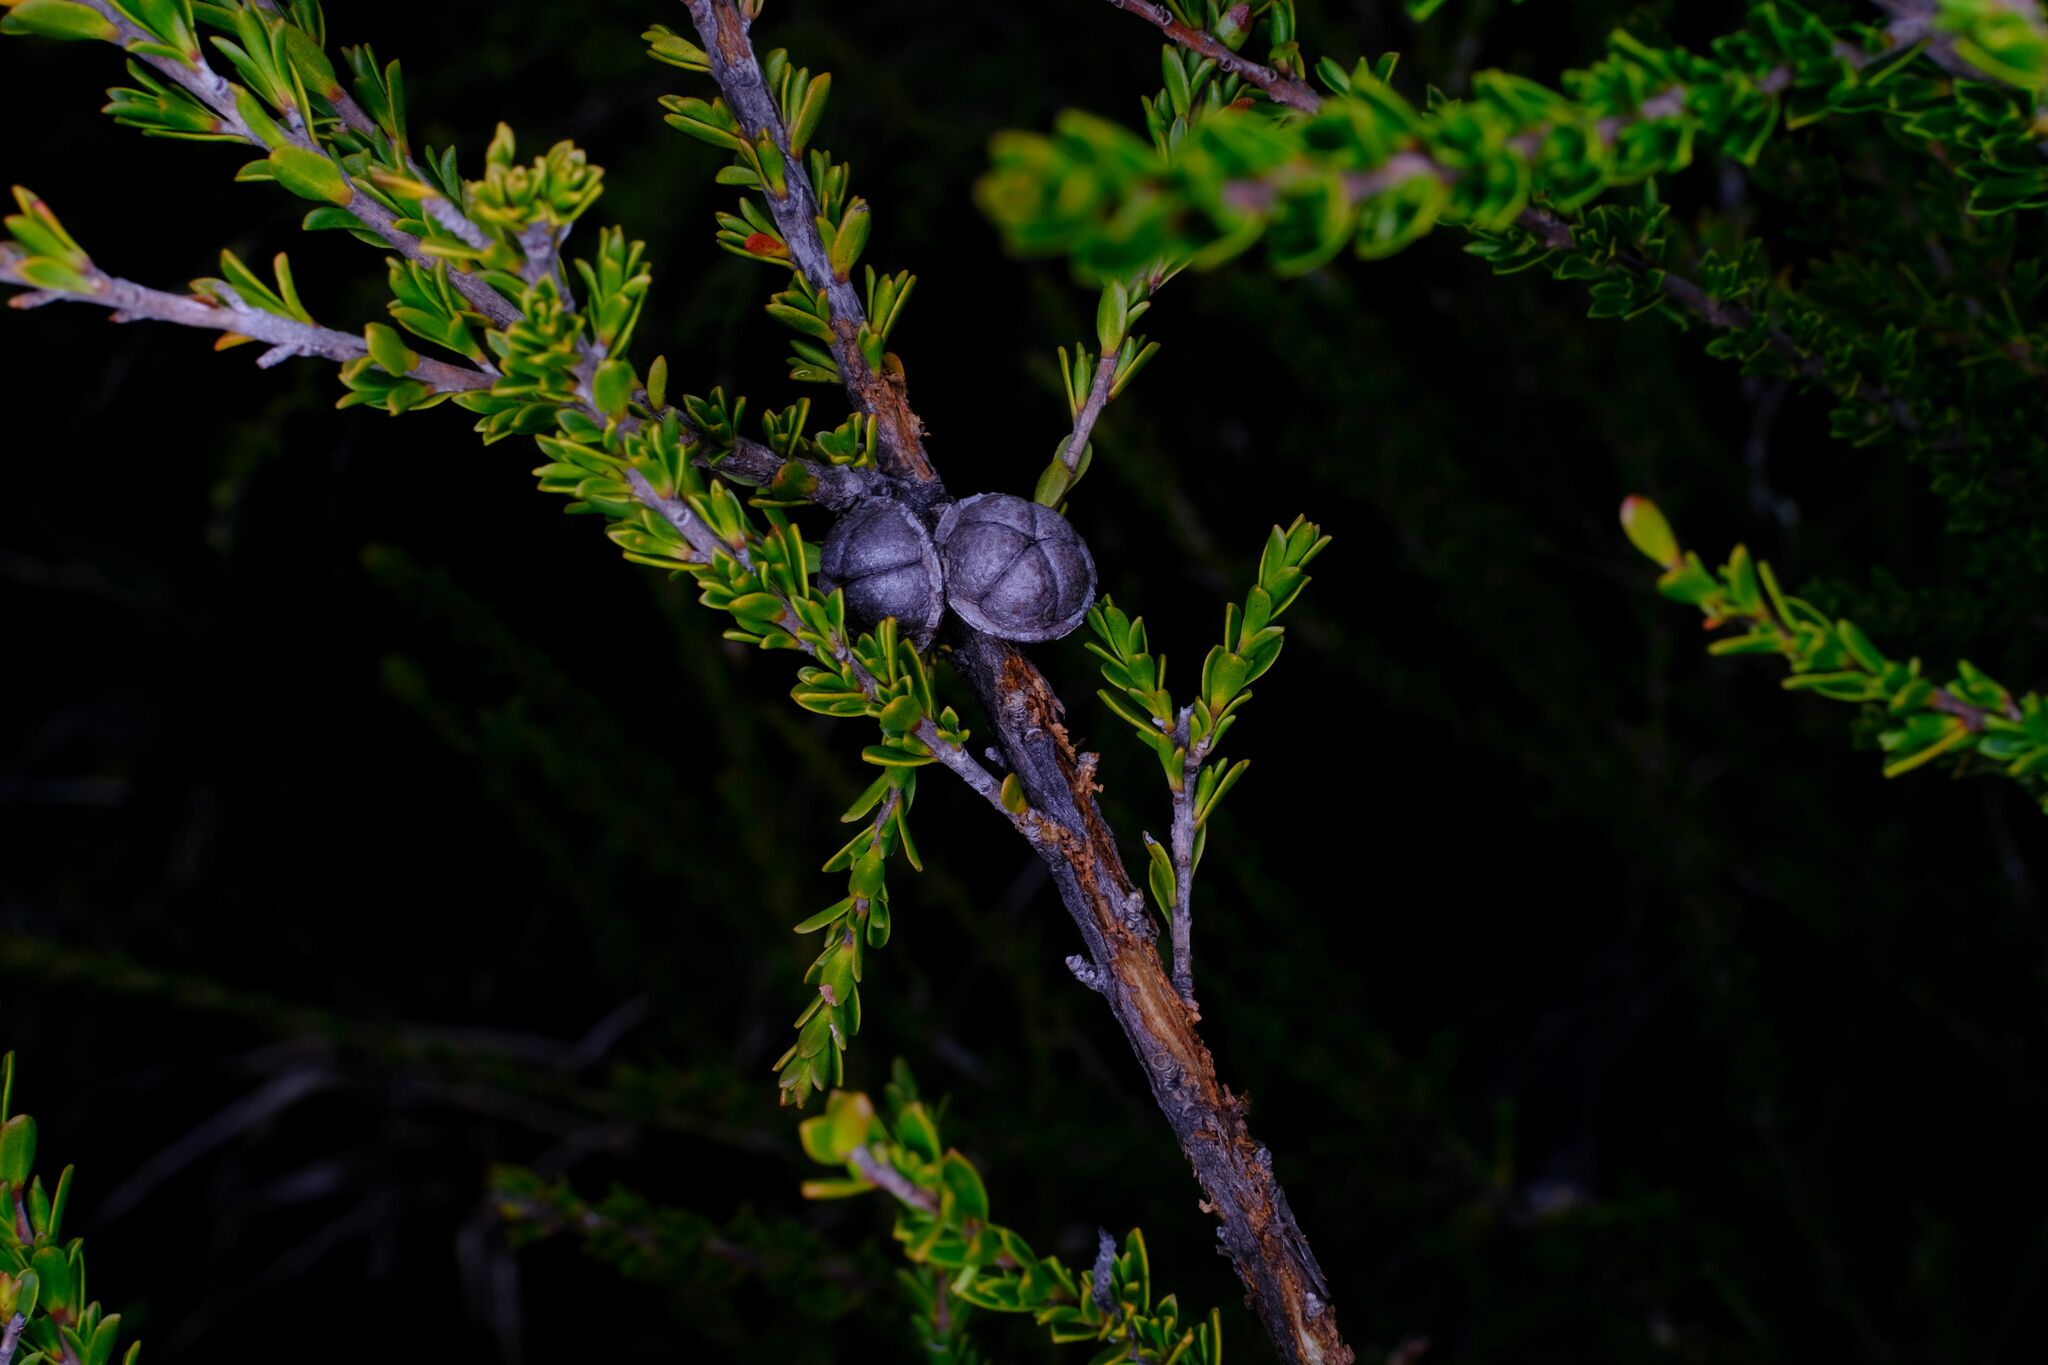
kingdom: Plantae
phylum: Tracheophyta
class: Magnoliopsida
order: Myrtales
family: Myrtaceae
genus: Leptospermum
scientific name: Leptospermum liversidgei
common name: Citron-scent teatree
